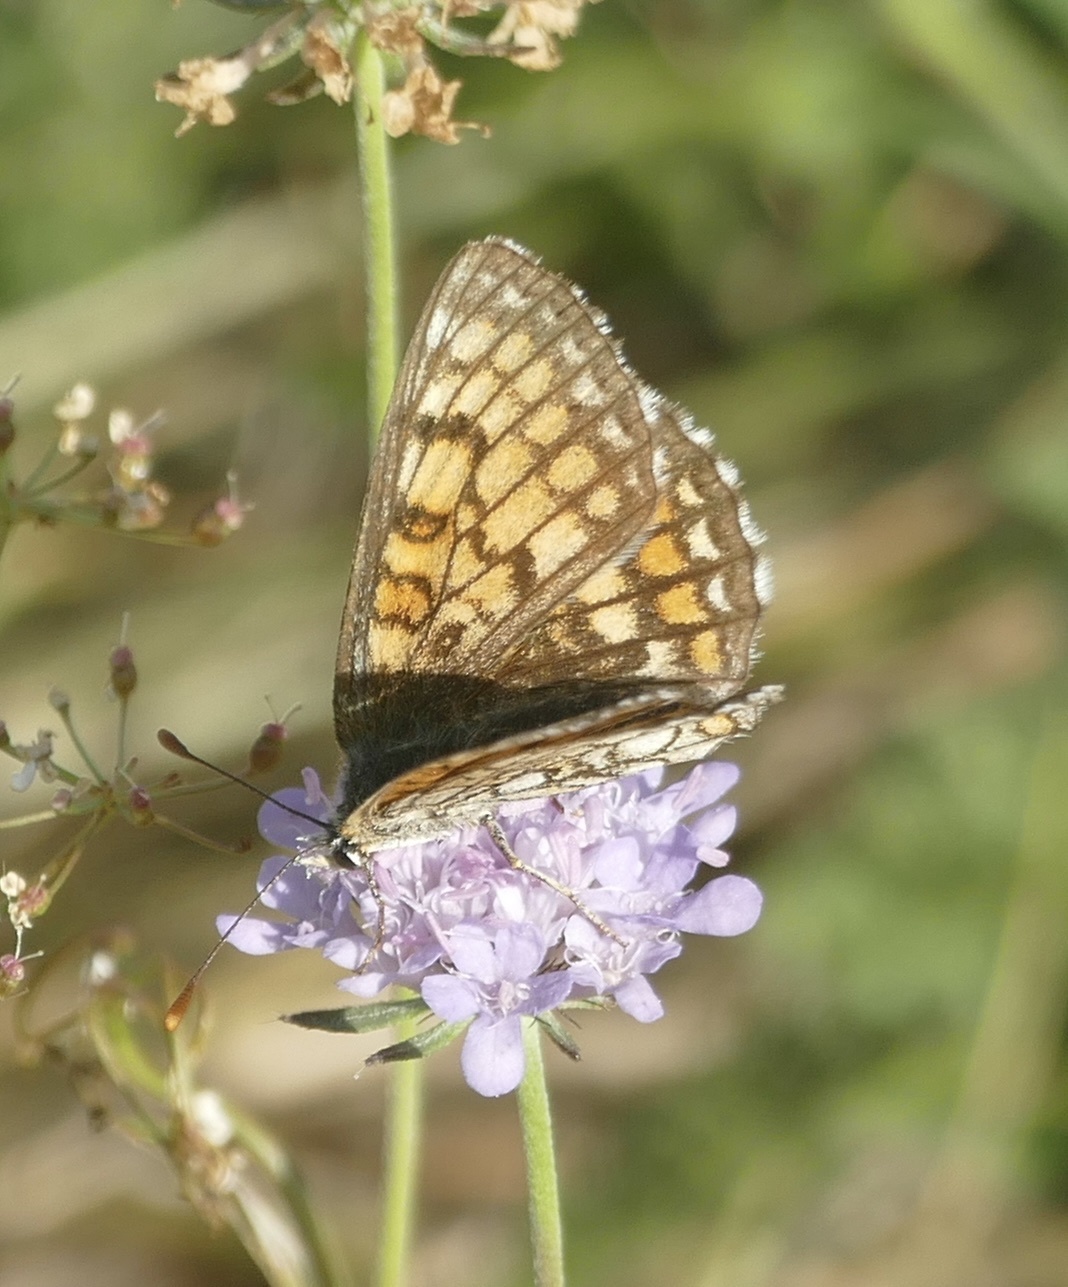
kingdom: Animalia
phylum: Arthropoda
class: Insecta
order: Lepidoptera
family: Nymphalidae
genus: Mellicta
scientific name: Mellicta parthenoides
